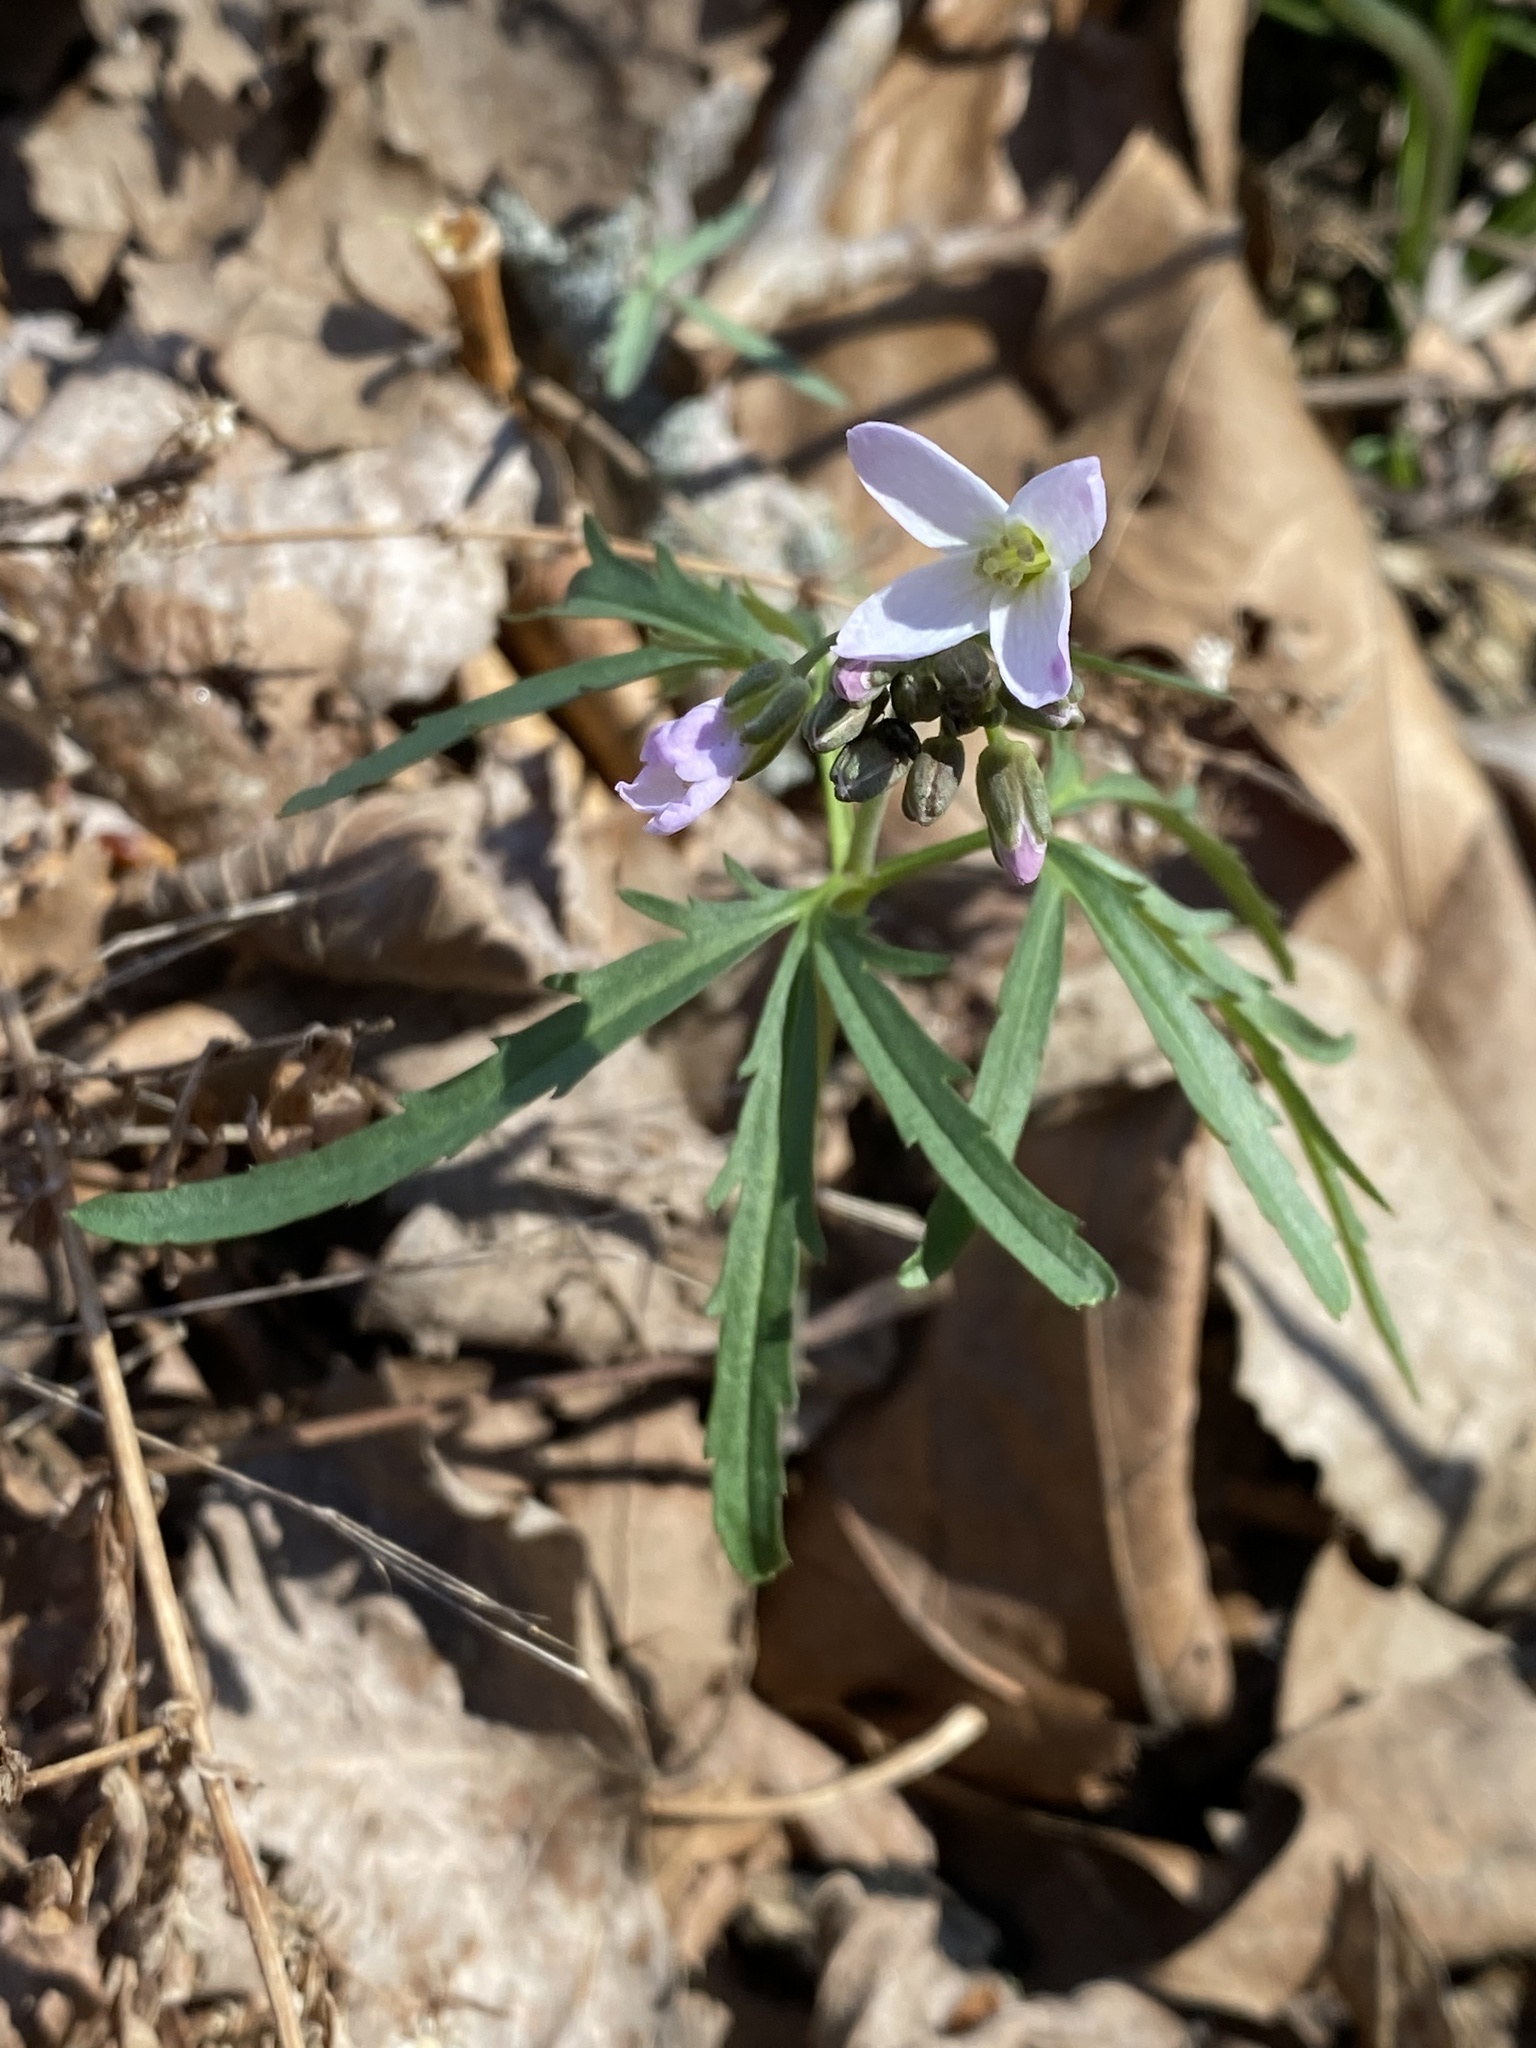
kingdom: Plantae
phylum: Tracheophyta
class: Magnoliopsida
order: Brassicales
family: Brassicaceae
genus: Cardamine
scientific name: Cardamine concatenata
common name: Cut-leaf toothcup
